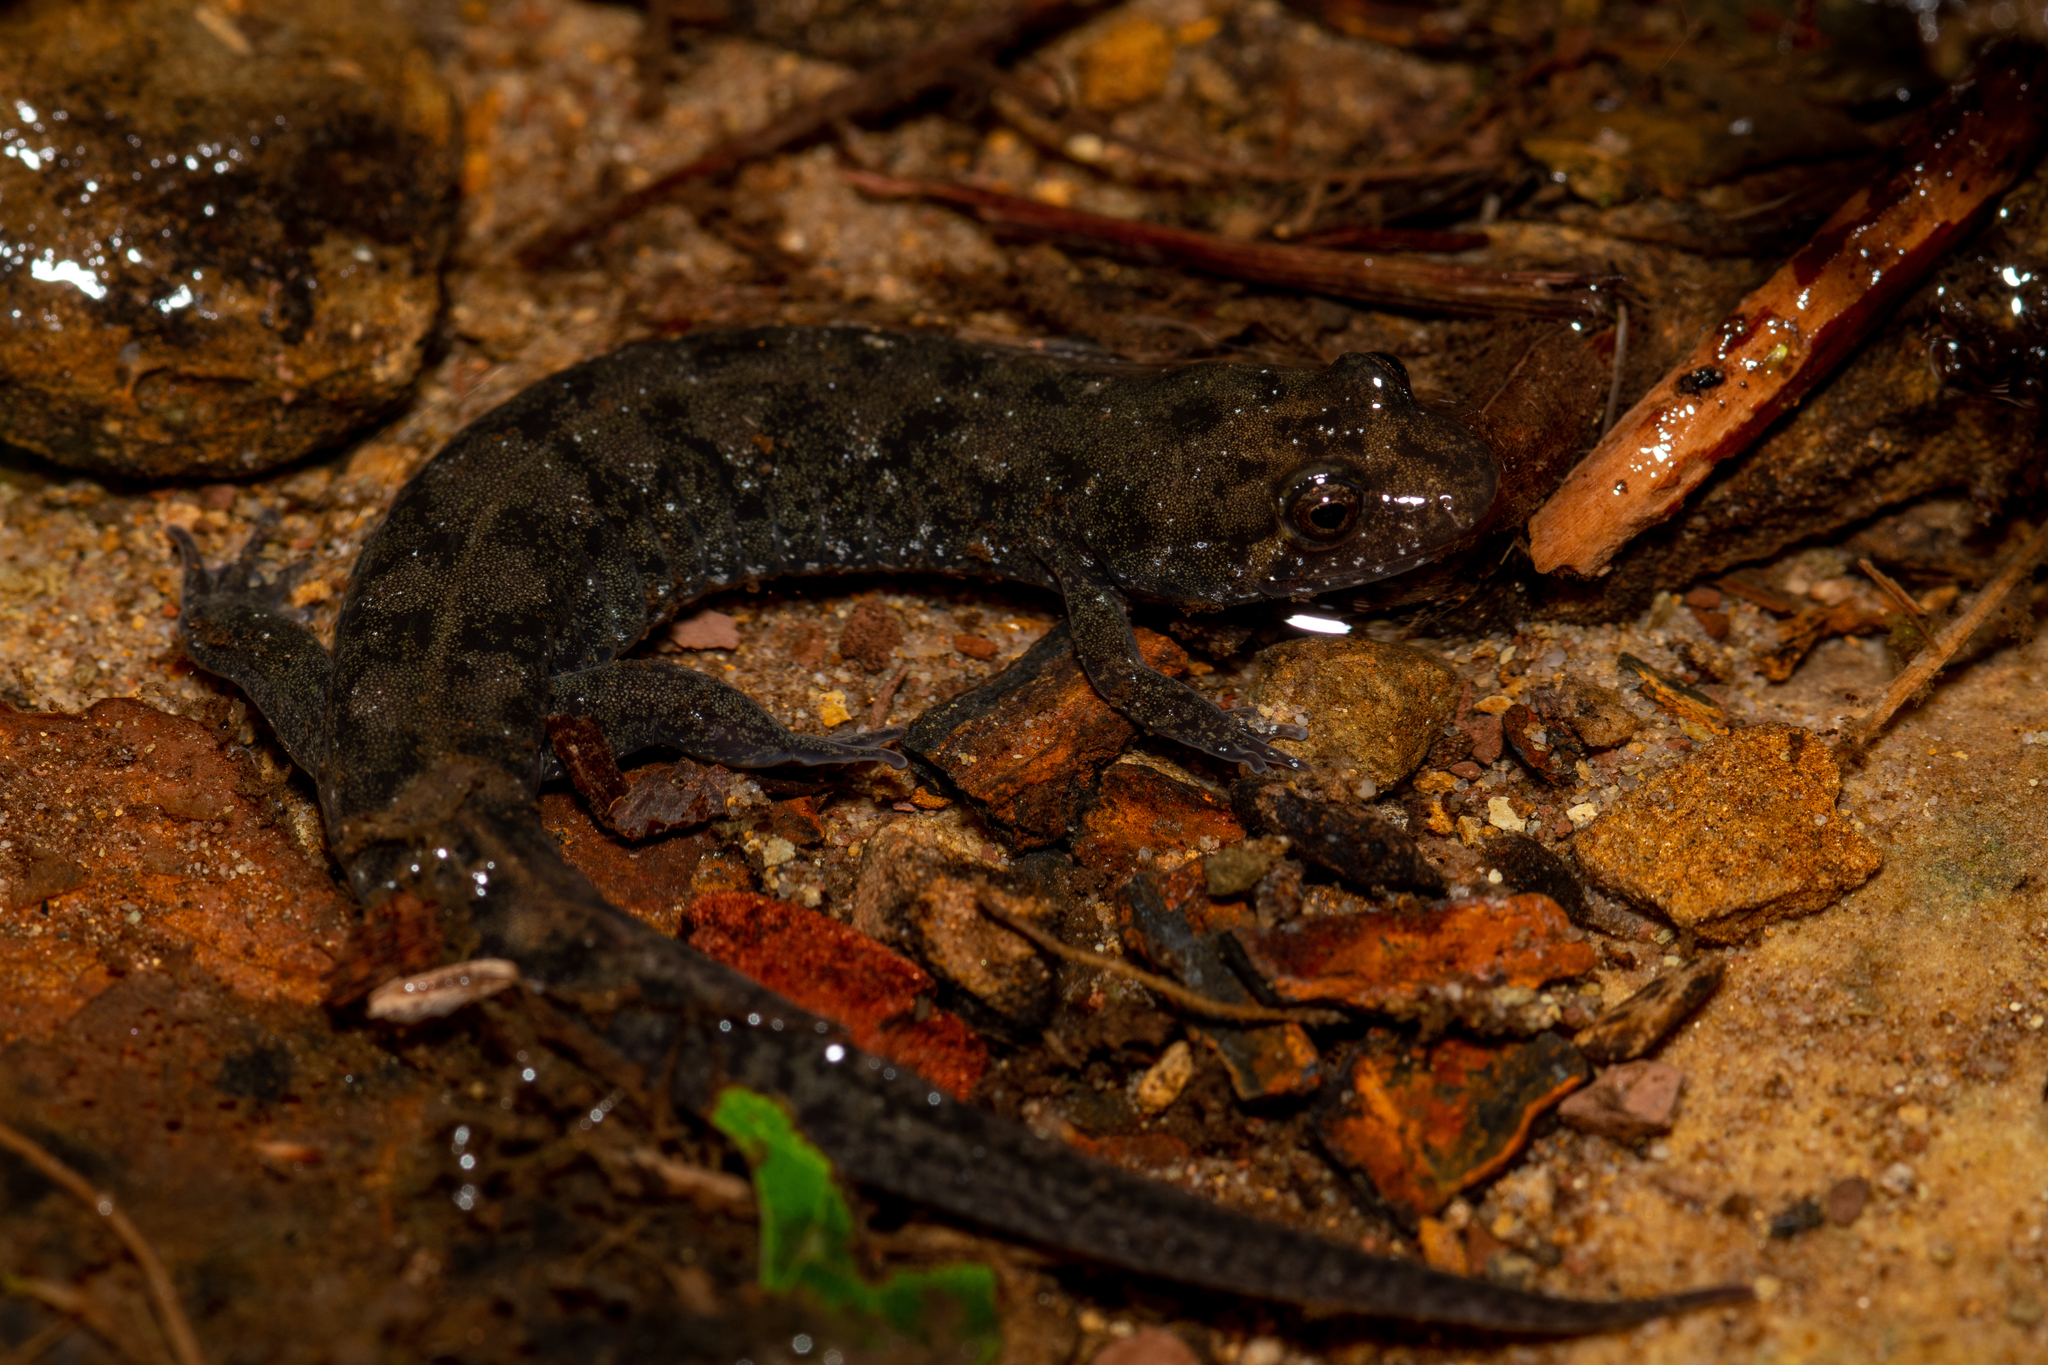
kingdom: Animalia
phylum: Chordata
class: Amphibia
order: Caudata
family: Plethodontidae
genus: Desmognathus
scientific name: Desmognathus monticola
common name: Seal salamander
